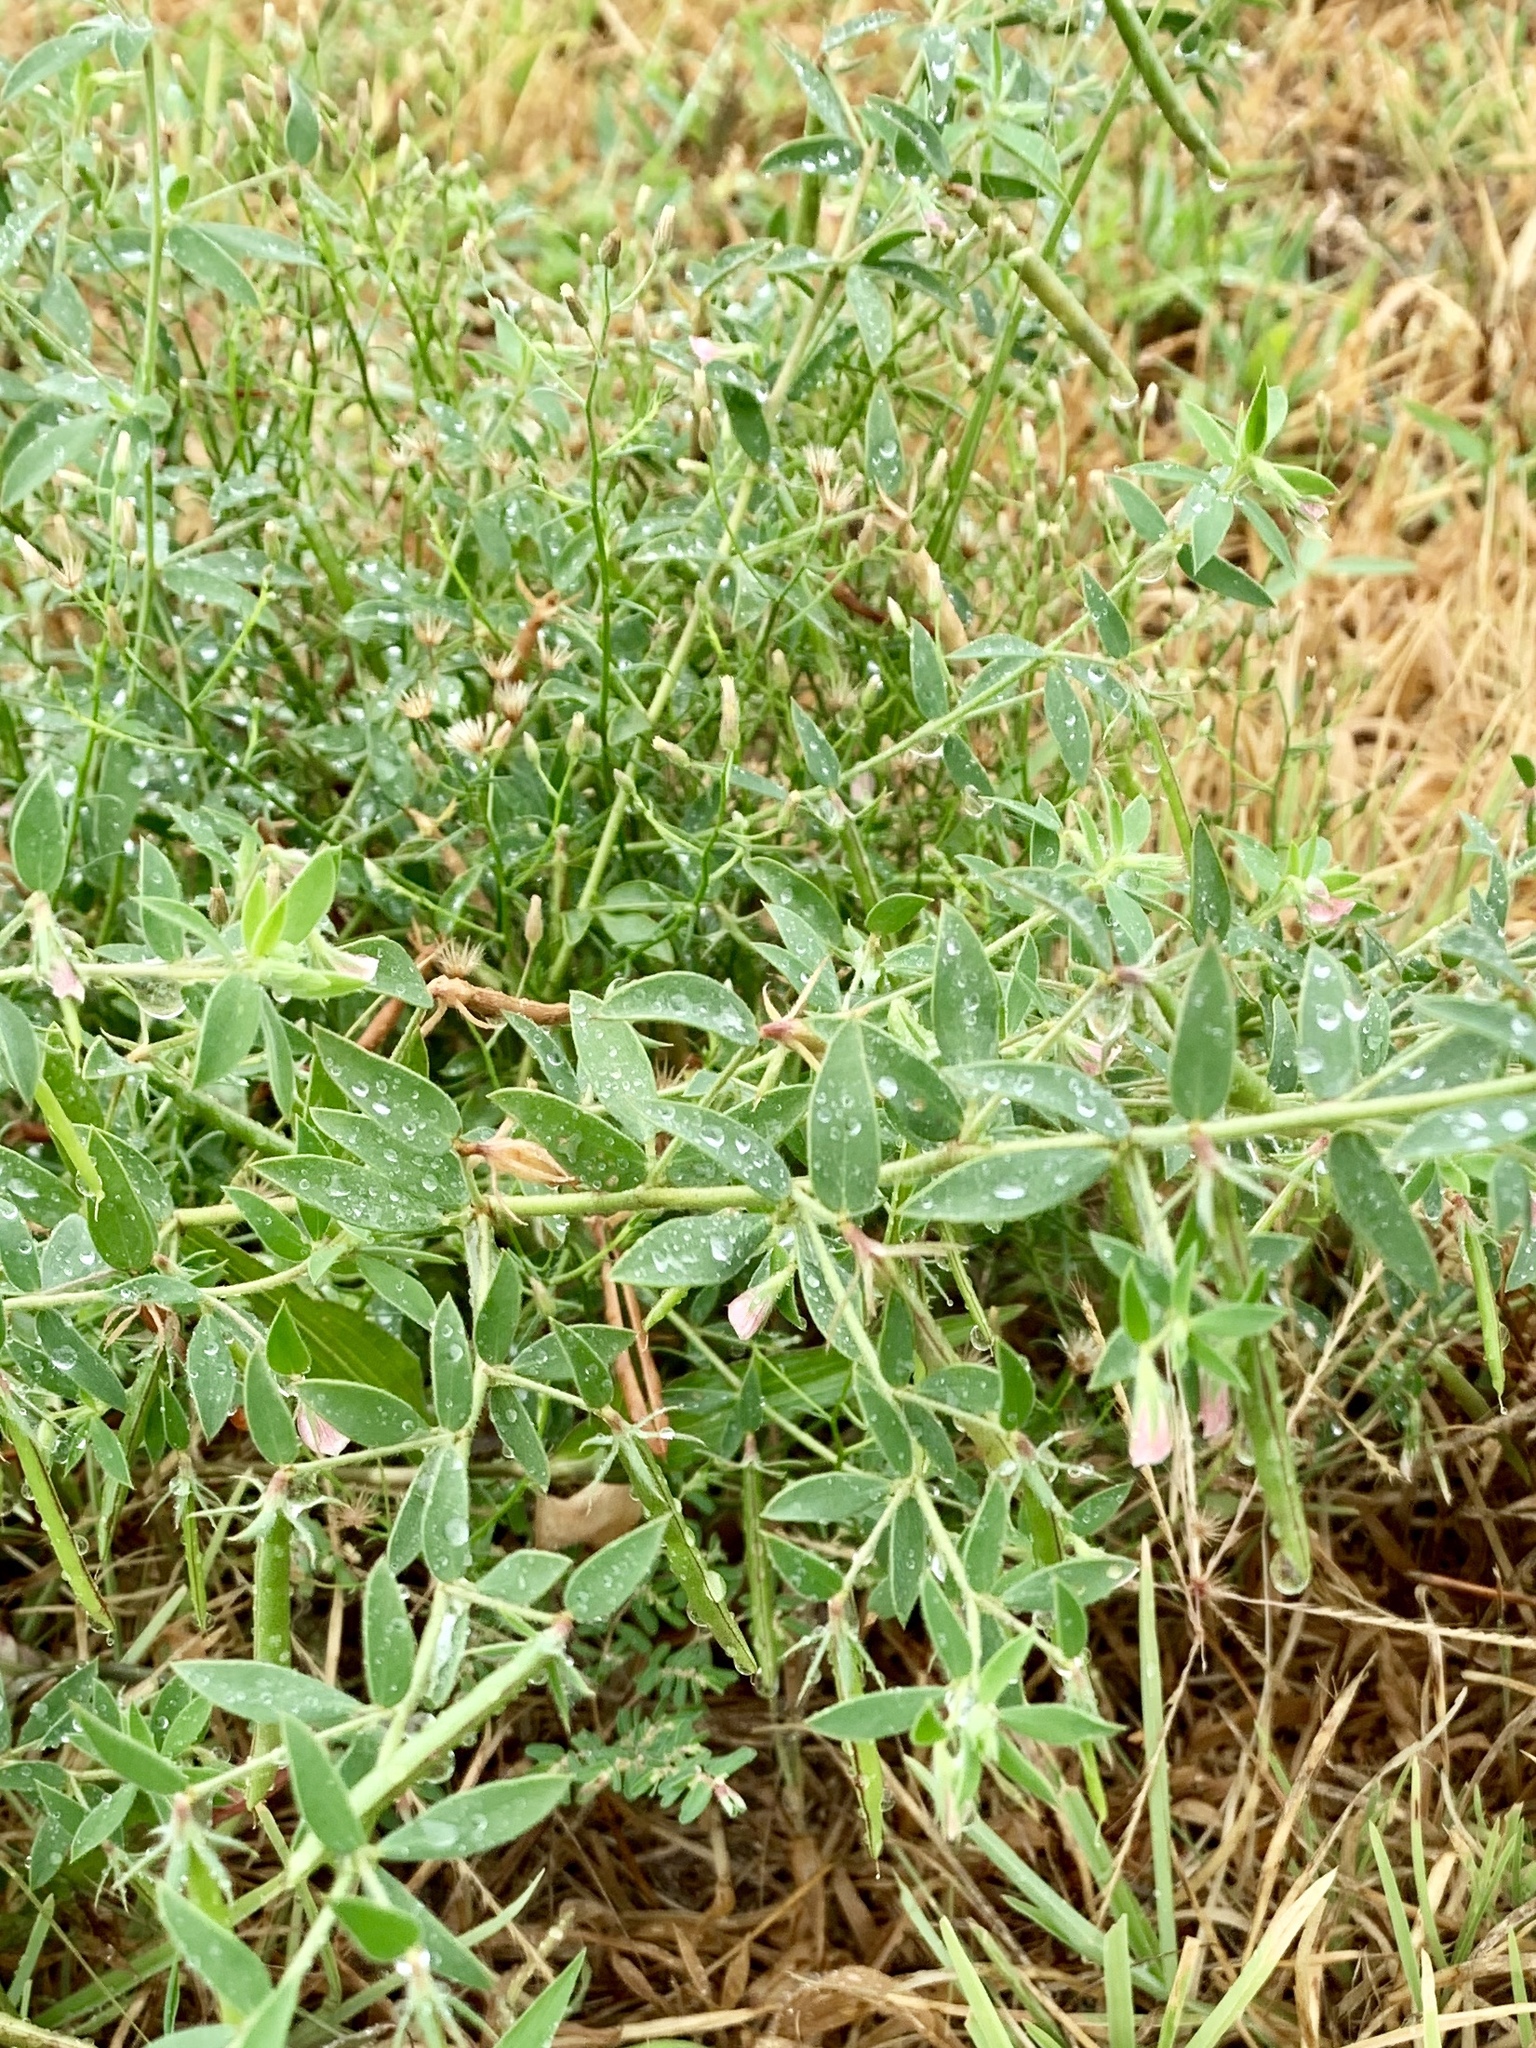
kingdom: Plantae
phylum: Tracheophyta
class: Magnoliopsida
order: Fabales
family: Fabaceae
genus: Acmispon
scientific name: Acmispon americanus
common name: American bird's-foot trefoil
